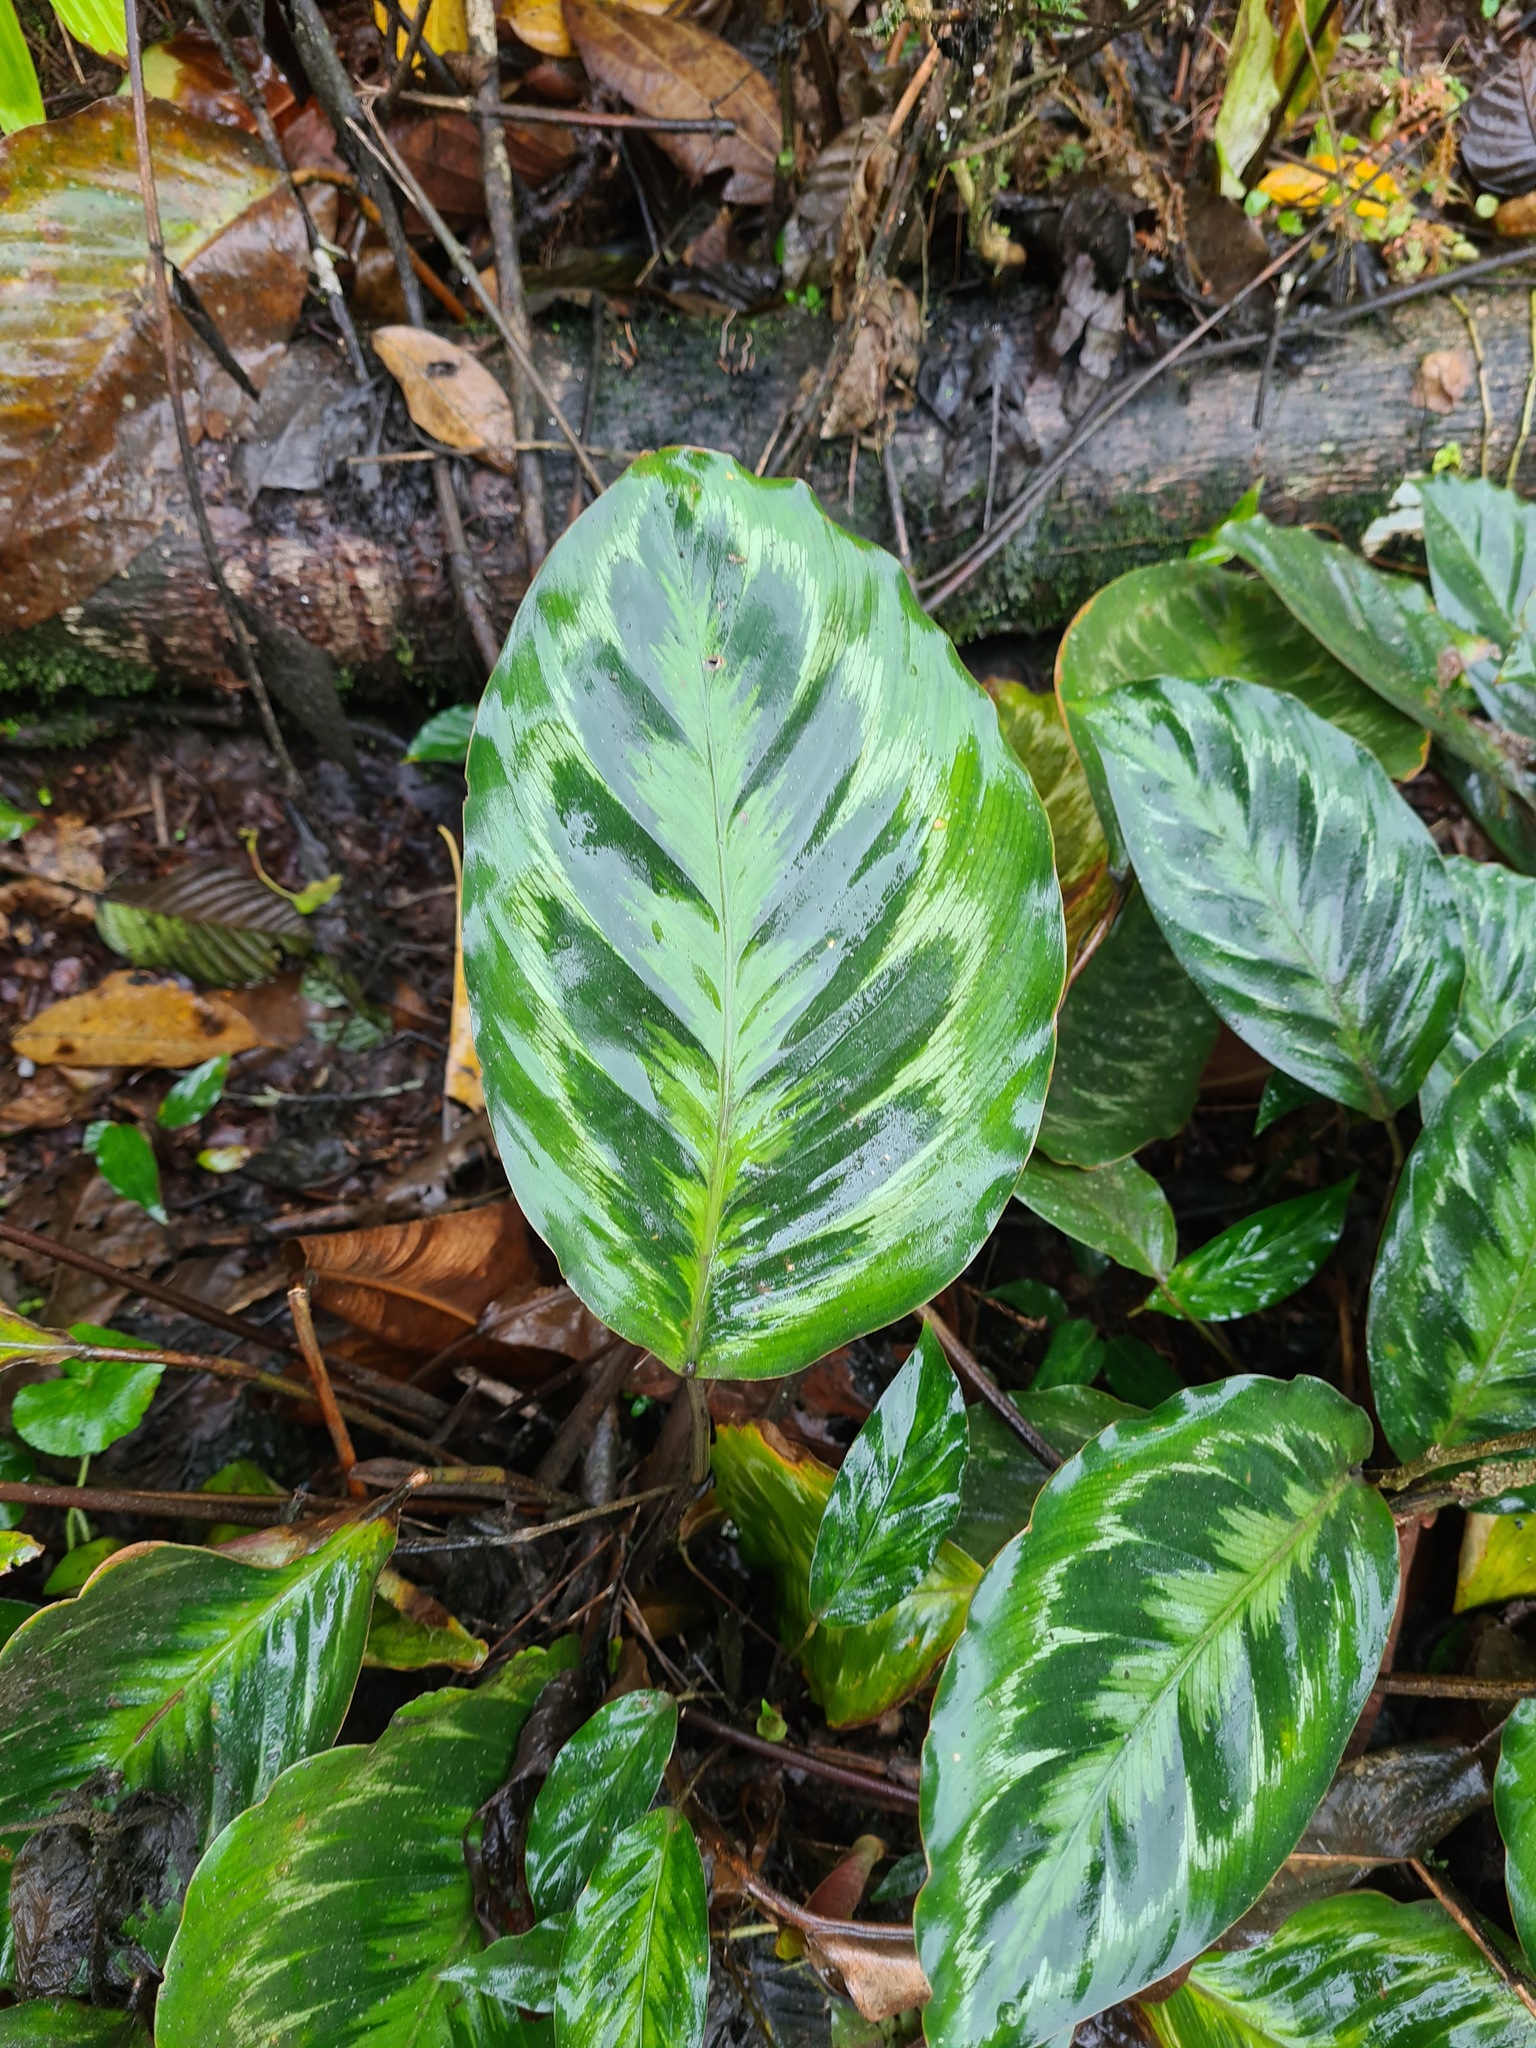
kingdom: Plantae
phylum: Tracheophyta
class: Liliopsida
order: Zingiberales
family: Marantaceae
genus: Goeppertia
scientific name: Goeppertia metallica
